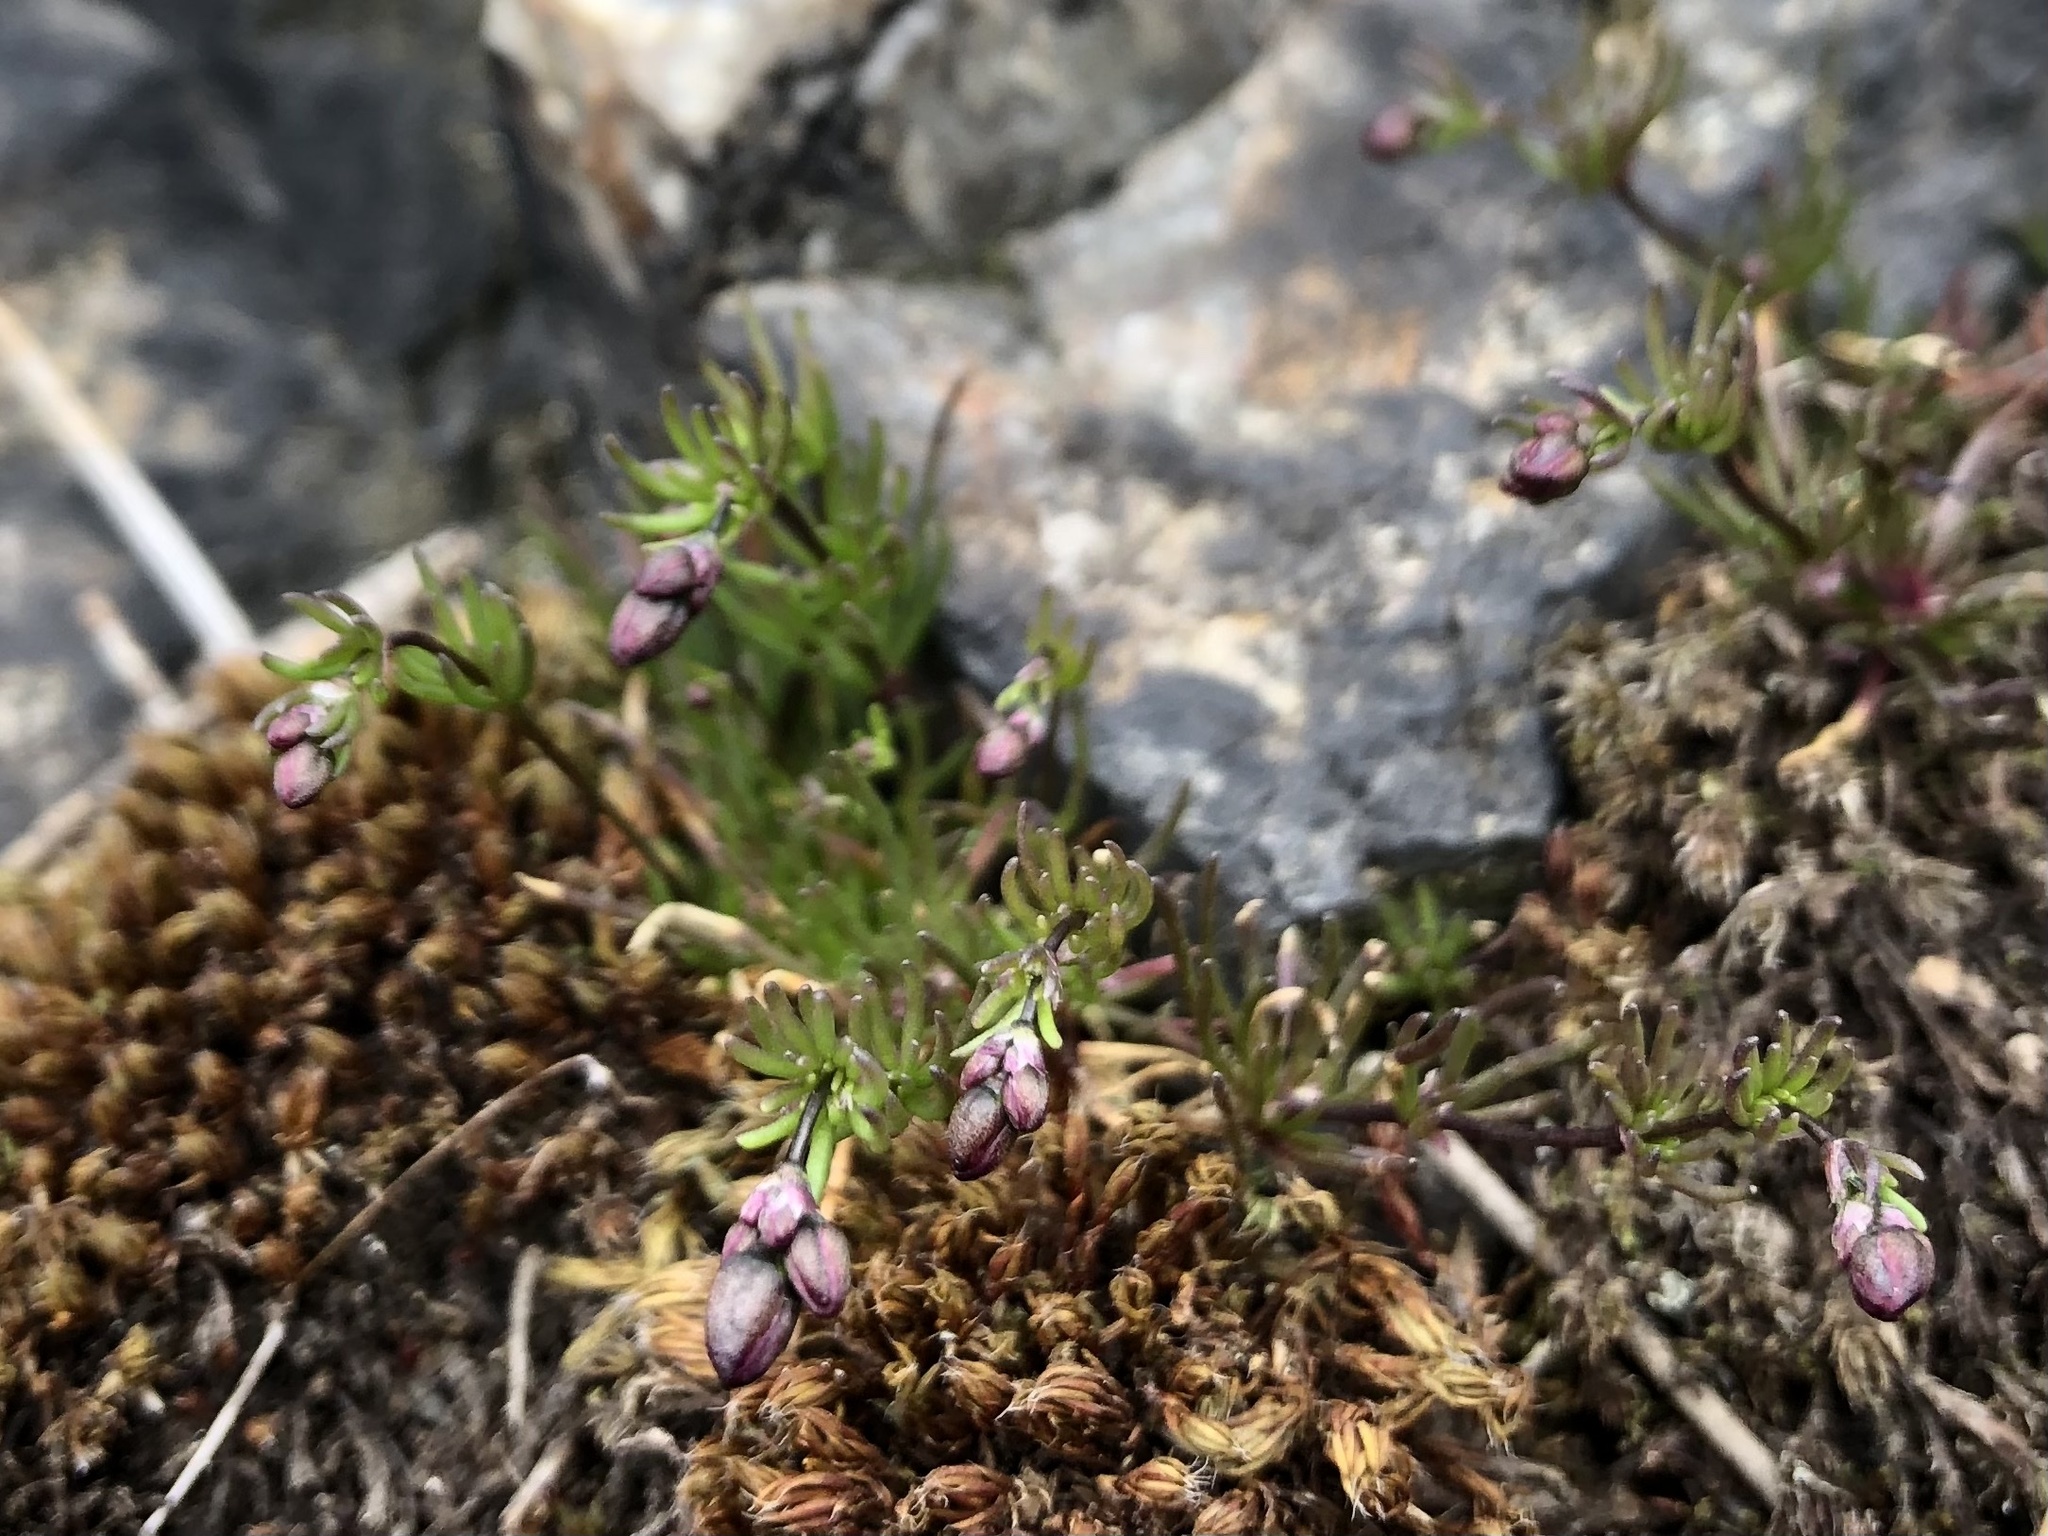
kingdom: Plantae
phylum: Tracheophyta
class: Magnoliopsida
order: Caryophyllales
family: Caryophyllaceae
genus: Spergula
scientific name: Spergula morisonii
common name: Pearlwort spurrey
